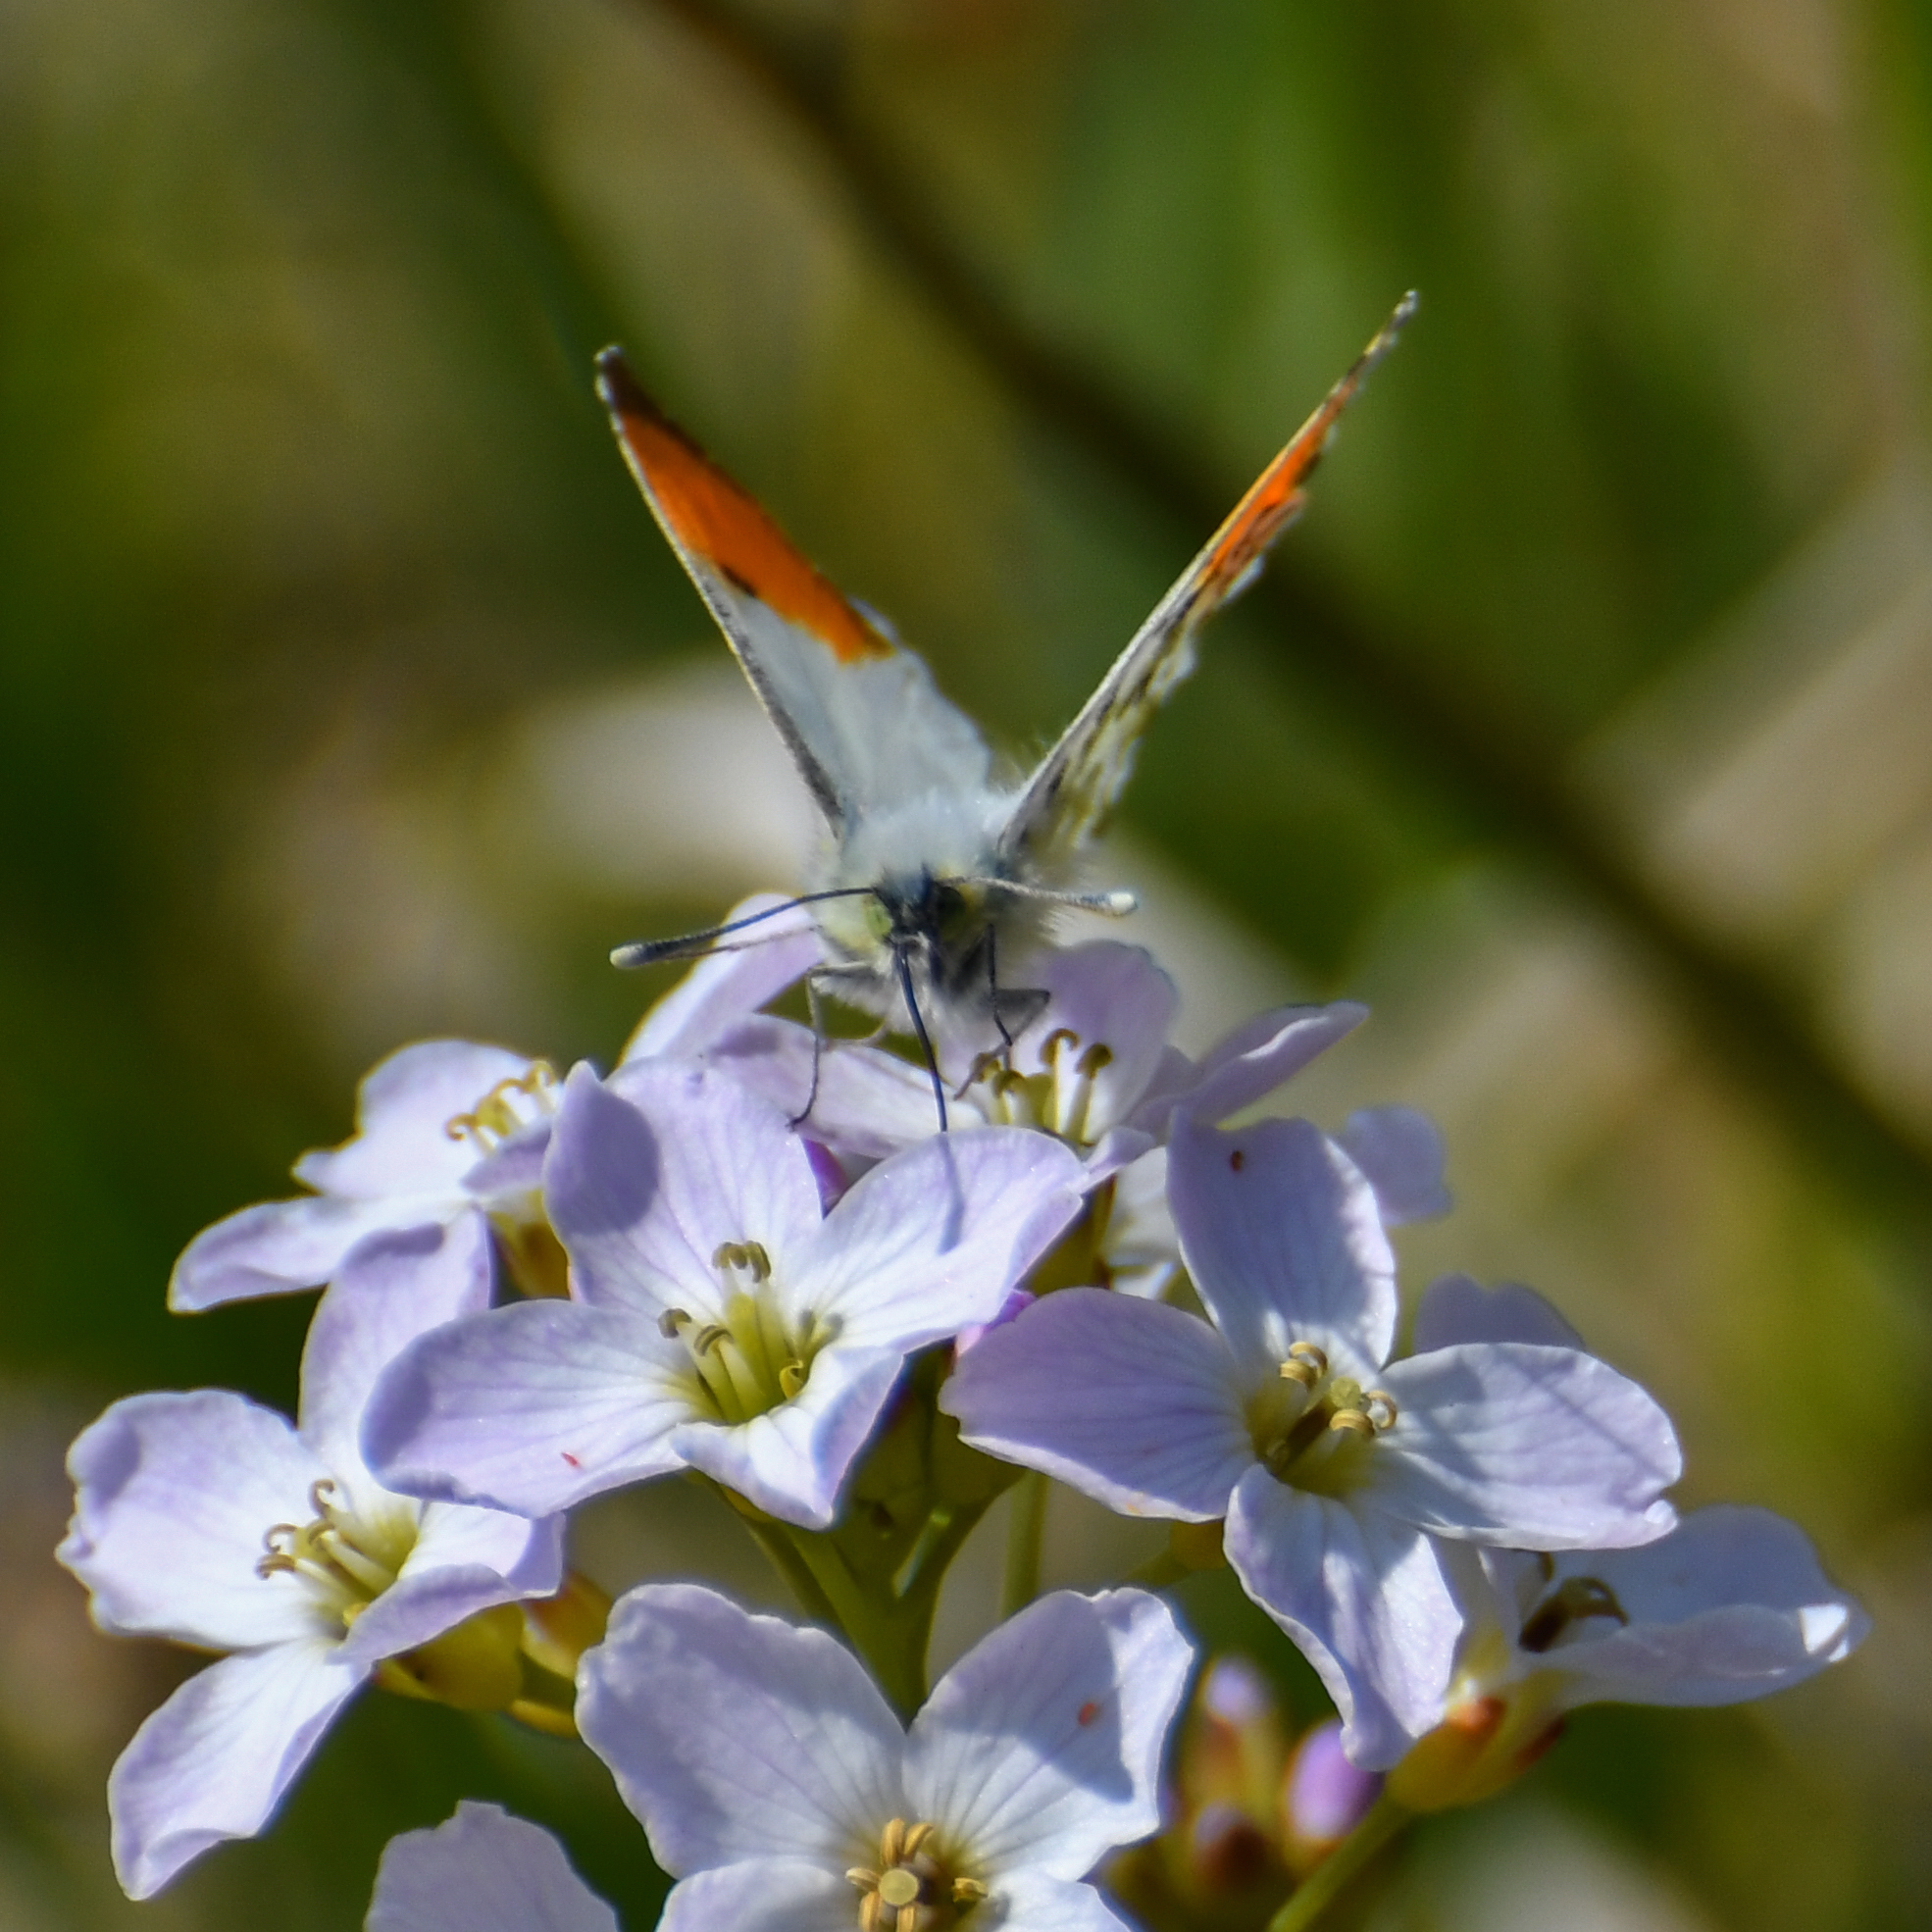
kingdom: Animalia
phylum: Arthropoda
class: Insecta
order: Lepidoptera
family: Pieridae
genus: Anthocharis
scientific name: Anthocharis cardamines
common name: Orange-tip
